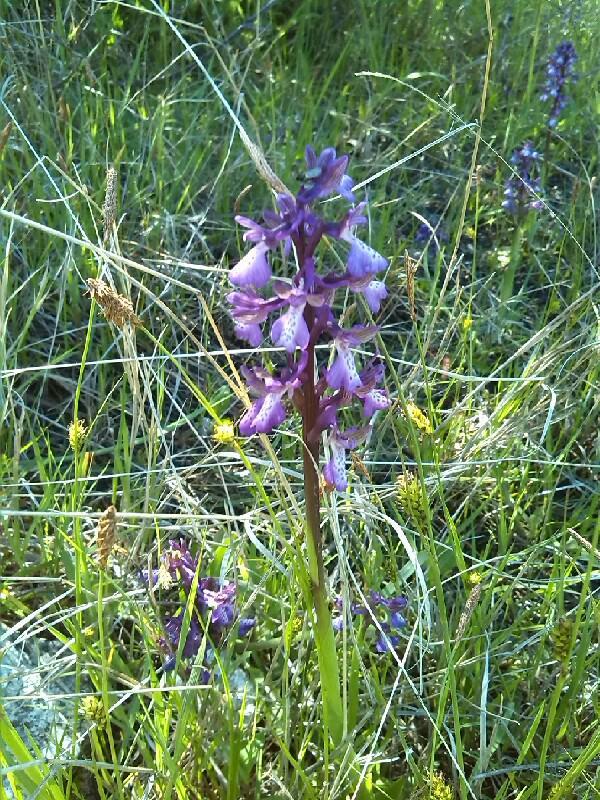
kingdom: Plantae
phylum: Tracheophyta
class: Liliopsida
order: Asparagales
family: Orchidaceae
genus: Anacamptis
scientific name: Anacamptis morio
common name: Green-winged orchid
